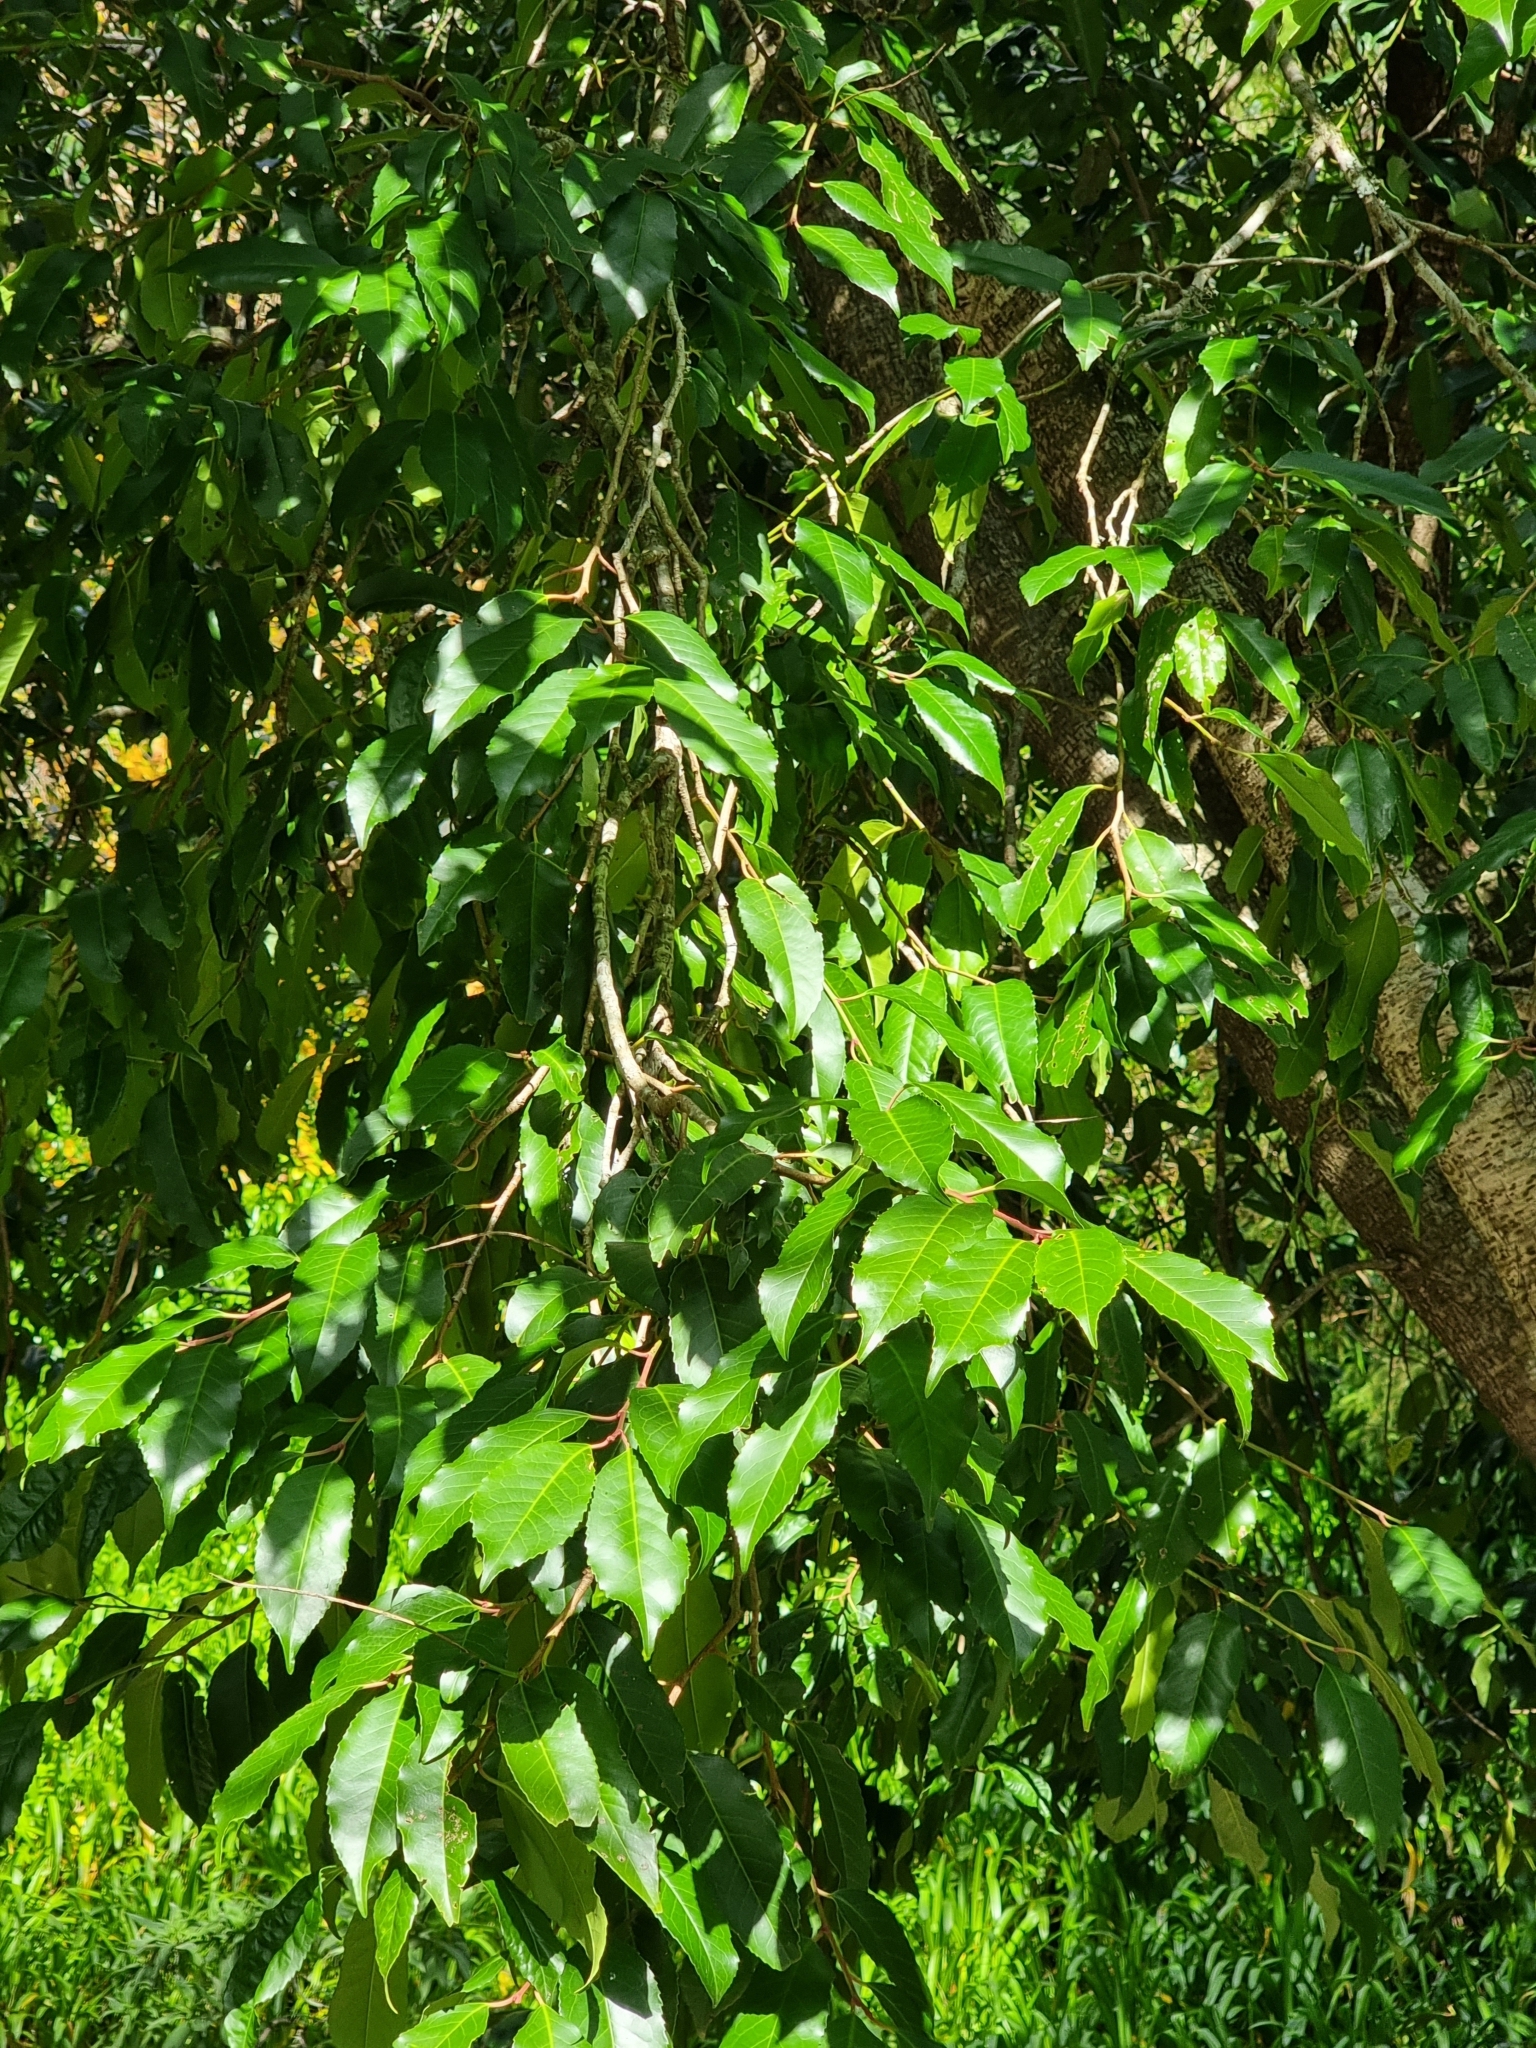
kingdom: Plantae
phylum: Tracheophyta
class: Magnoliopsida
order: Rosales
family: Rosaceae
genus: Prunus
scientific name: Prunus hixa
